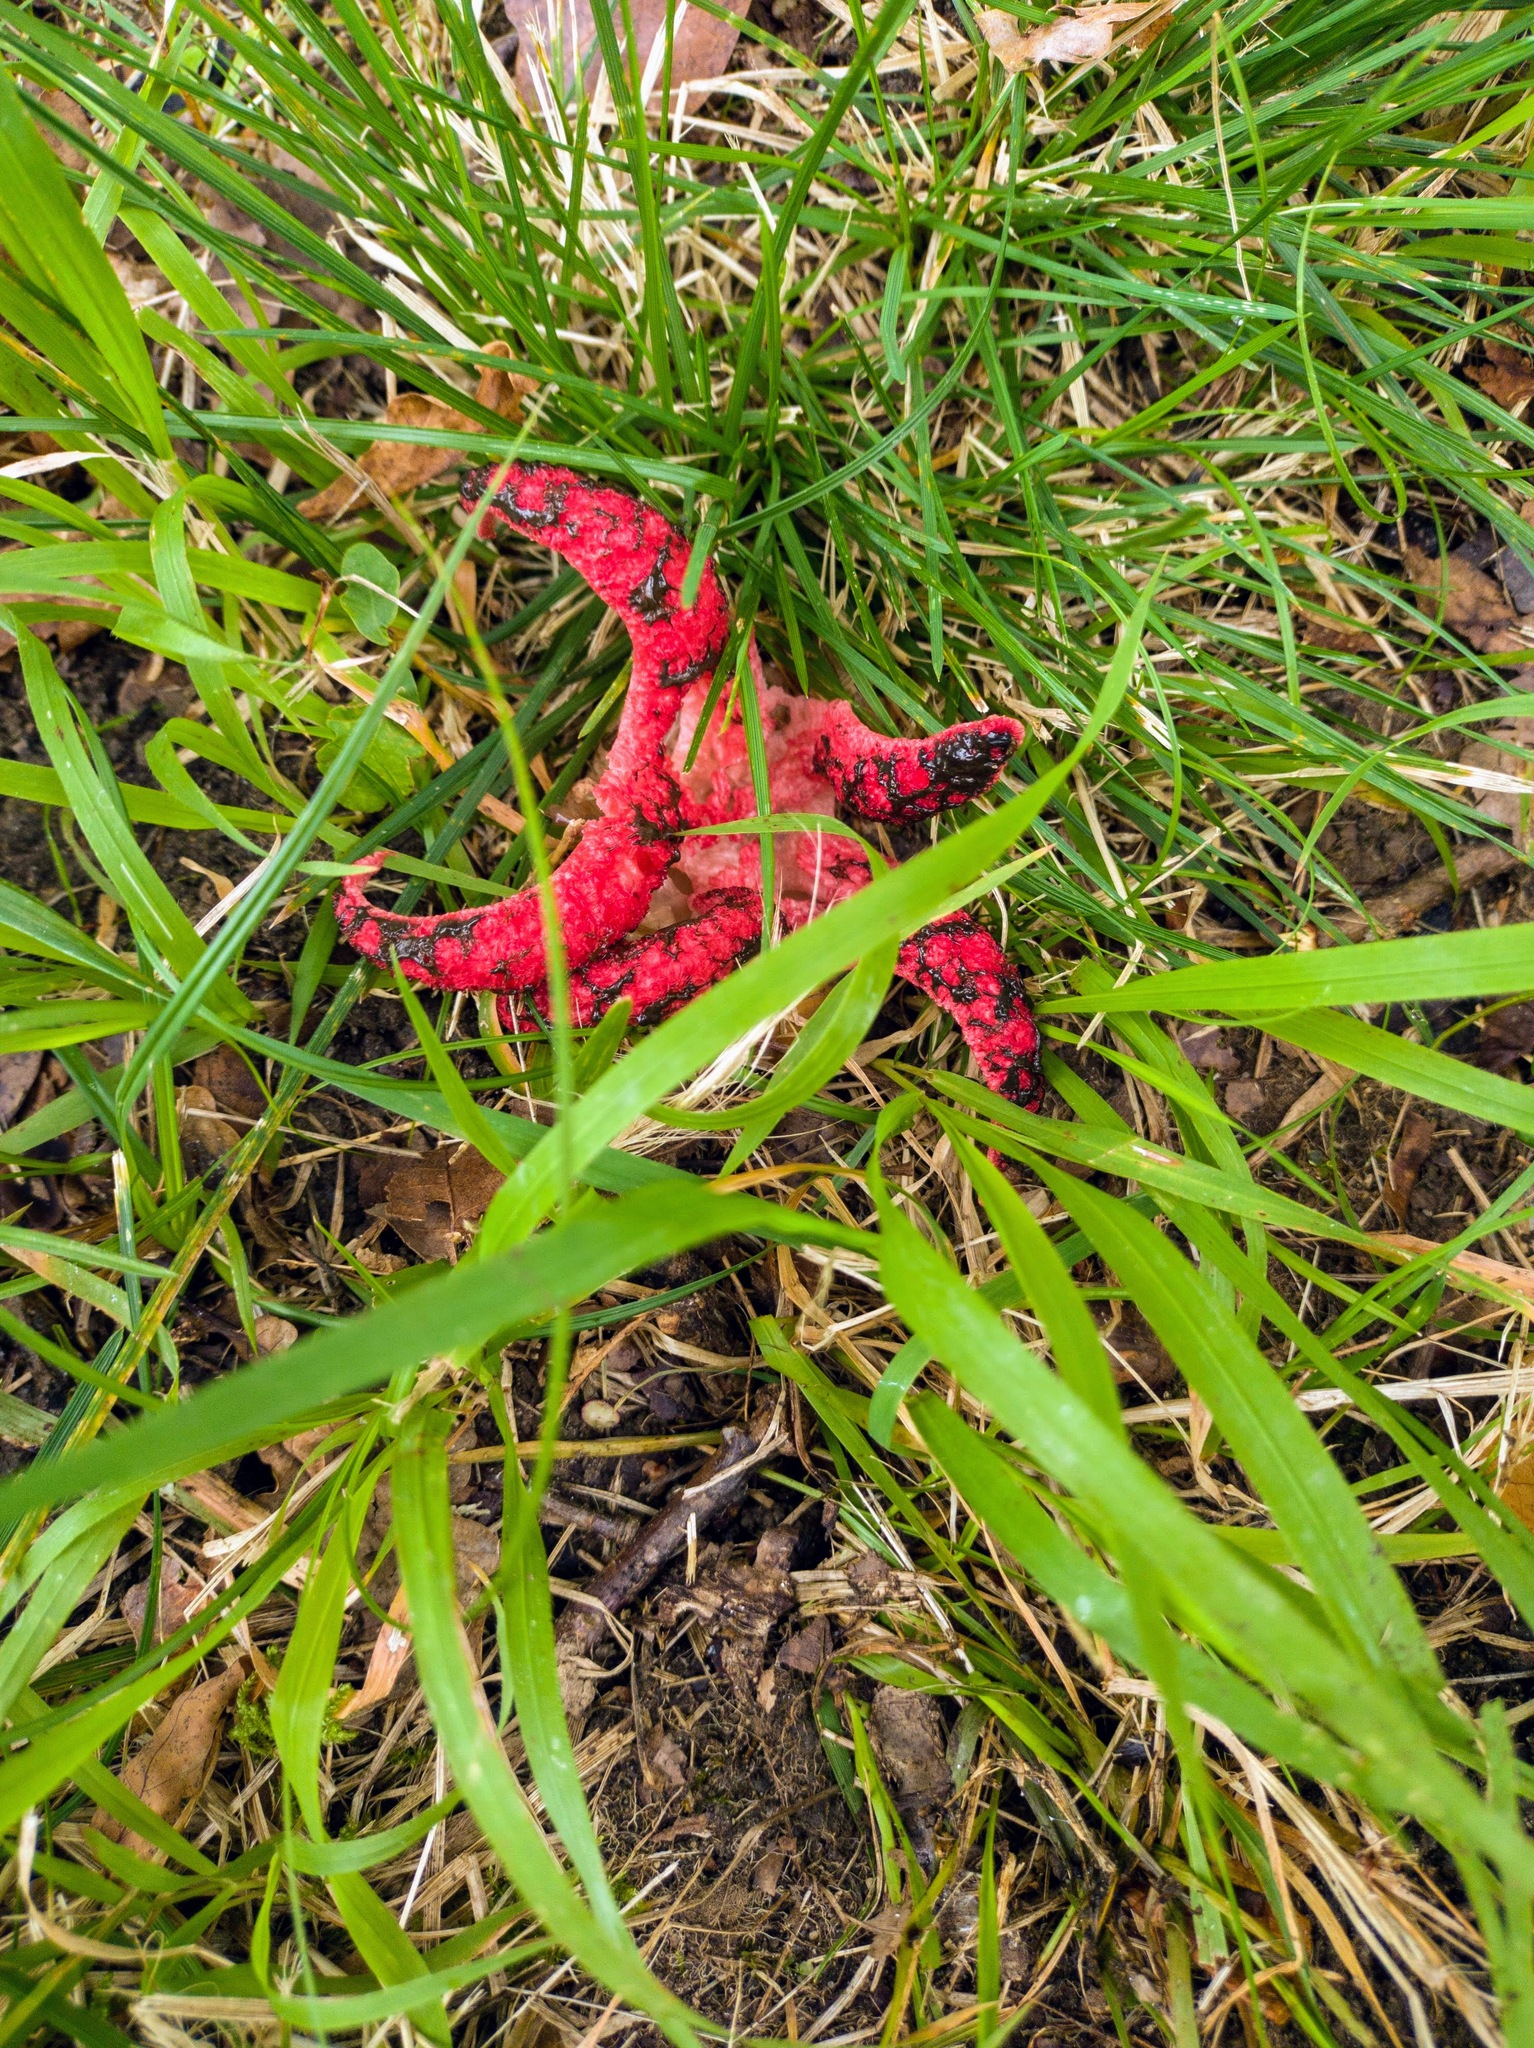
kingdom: Fungi
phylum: Basidiomycota
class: Agaricomycetes
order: Phallales
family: Phallaceae
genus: Clathrus
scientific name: Clathrus archeri
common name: Devil's fingers
